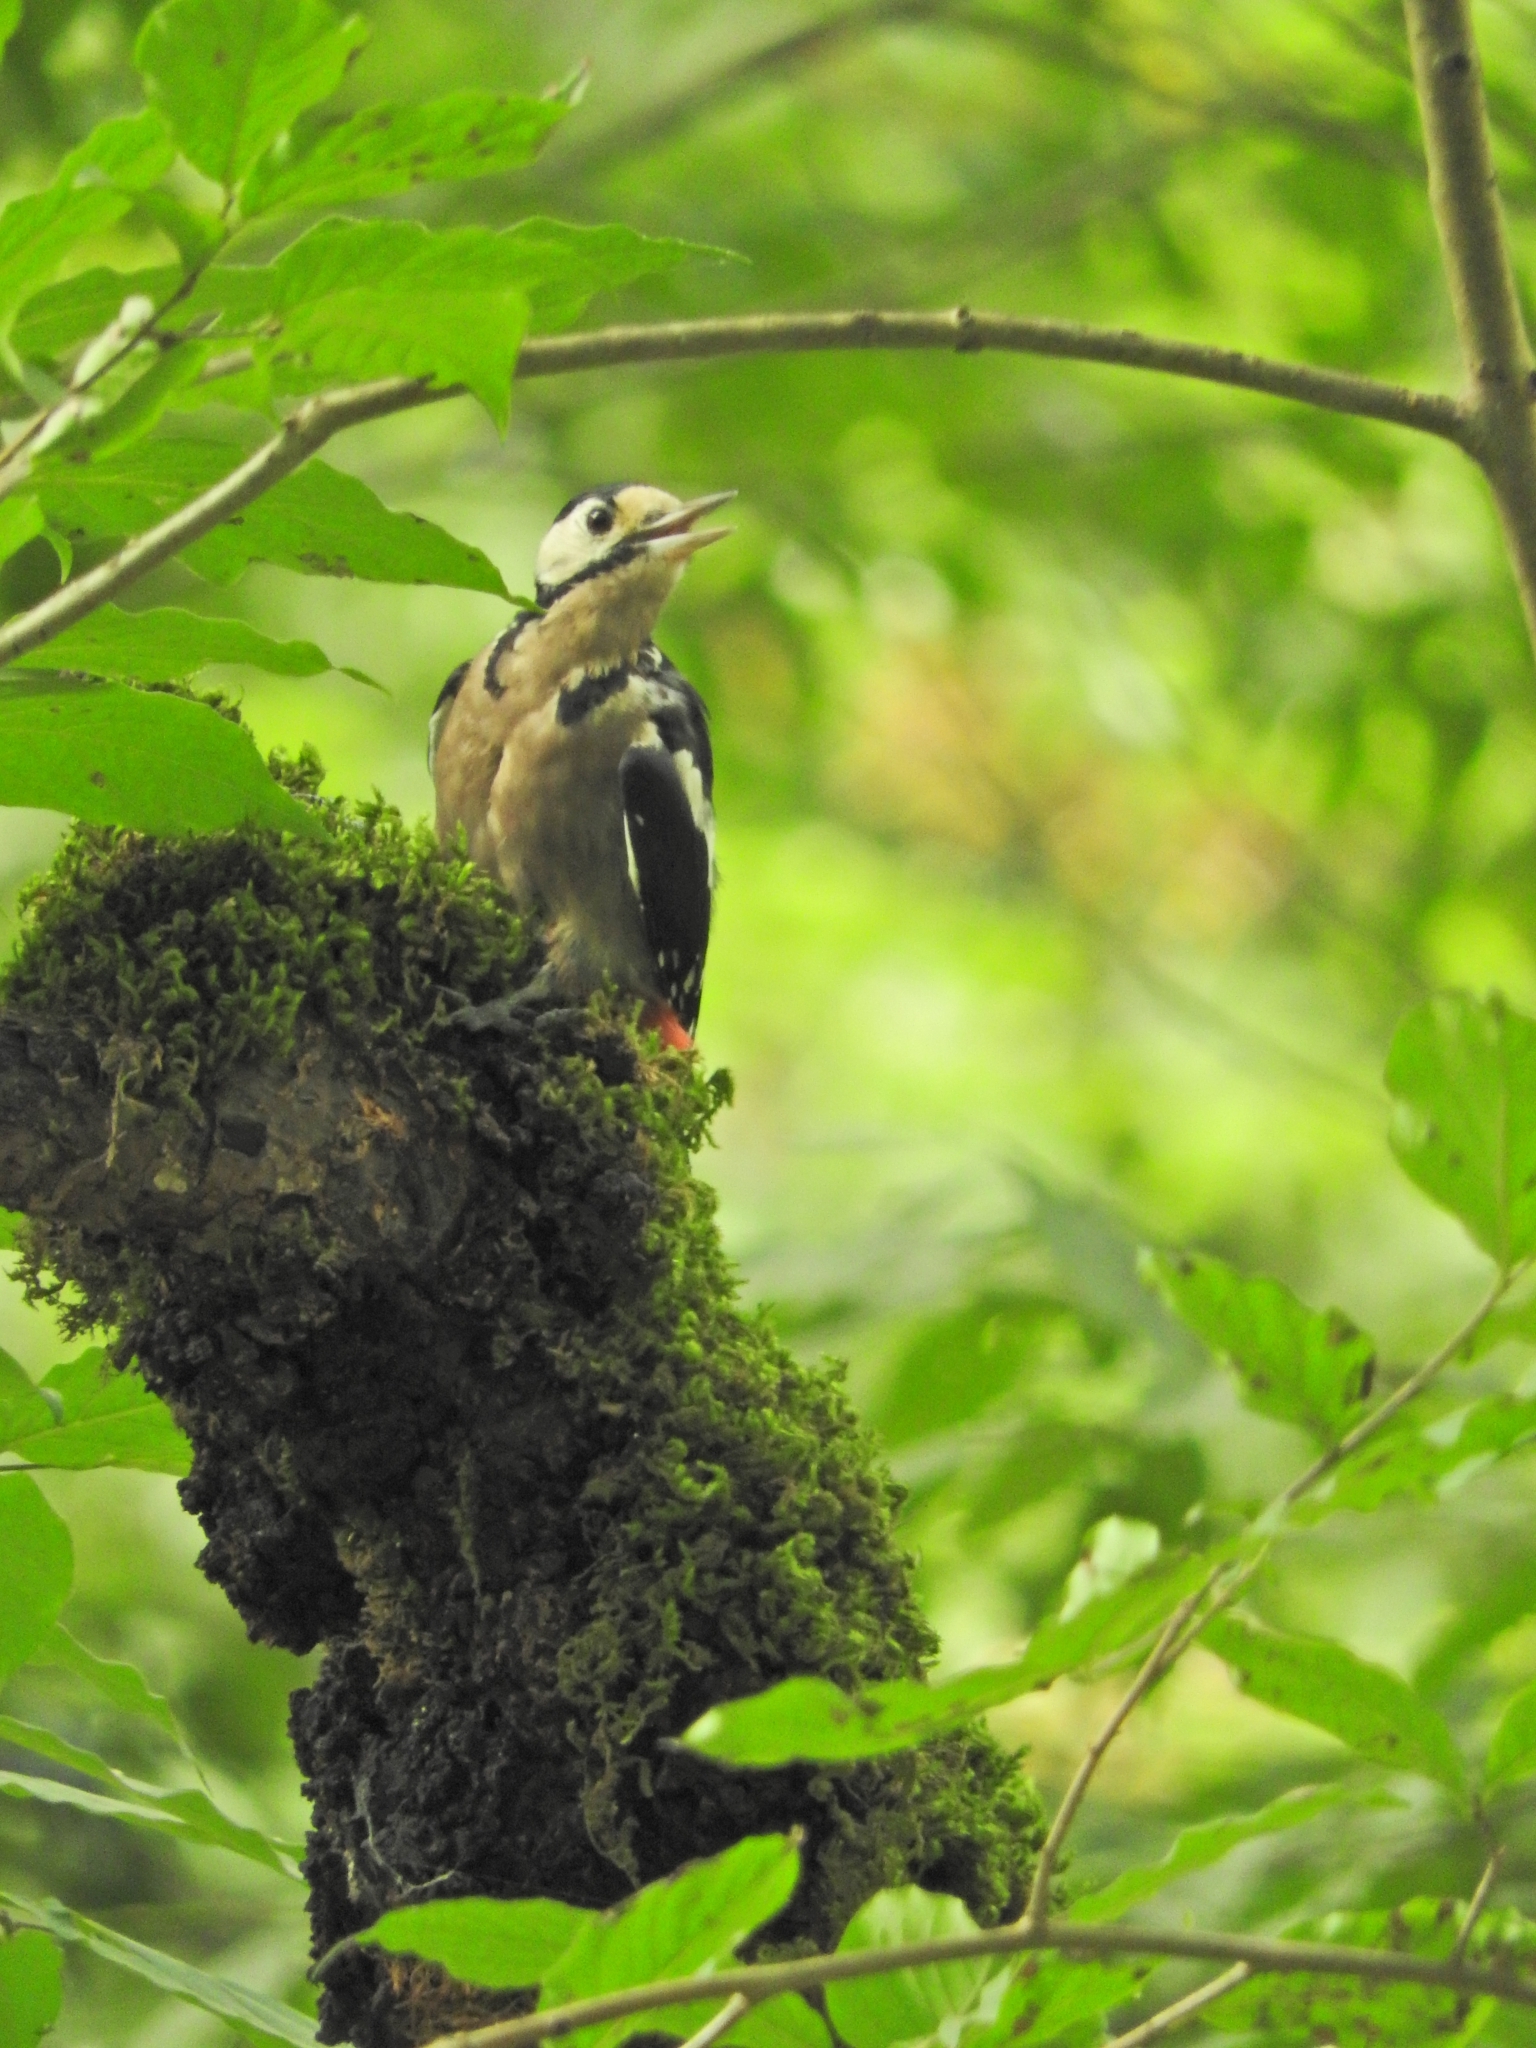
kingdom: Animalia
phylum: Chordata
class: Aves
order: Piciformes
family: Picidae
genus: Dendrocopos
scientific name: Dendrocopos major
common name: Great spotted woodpecker
